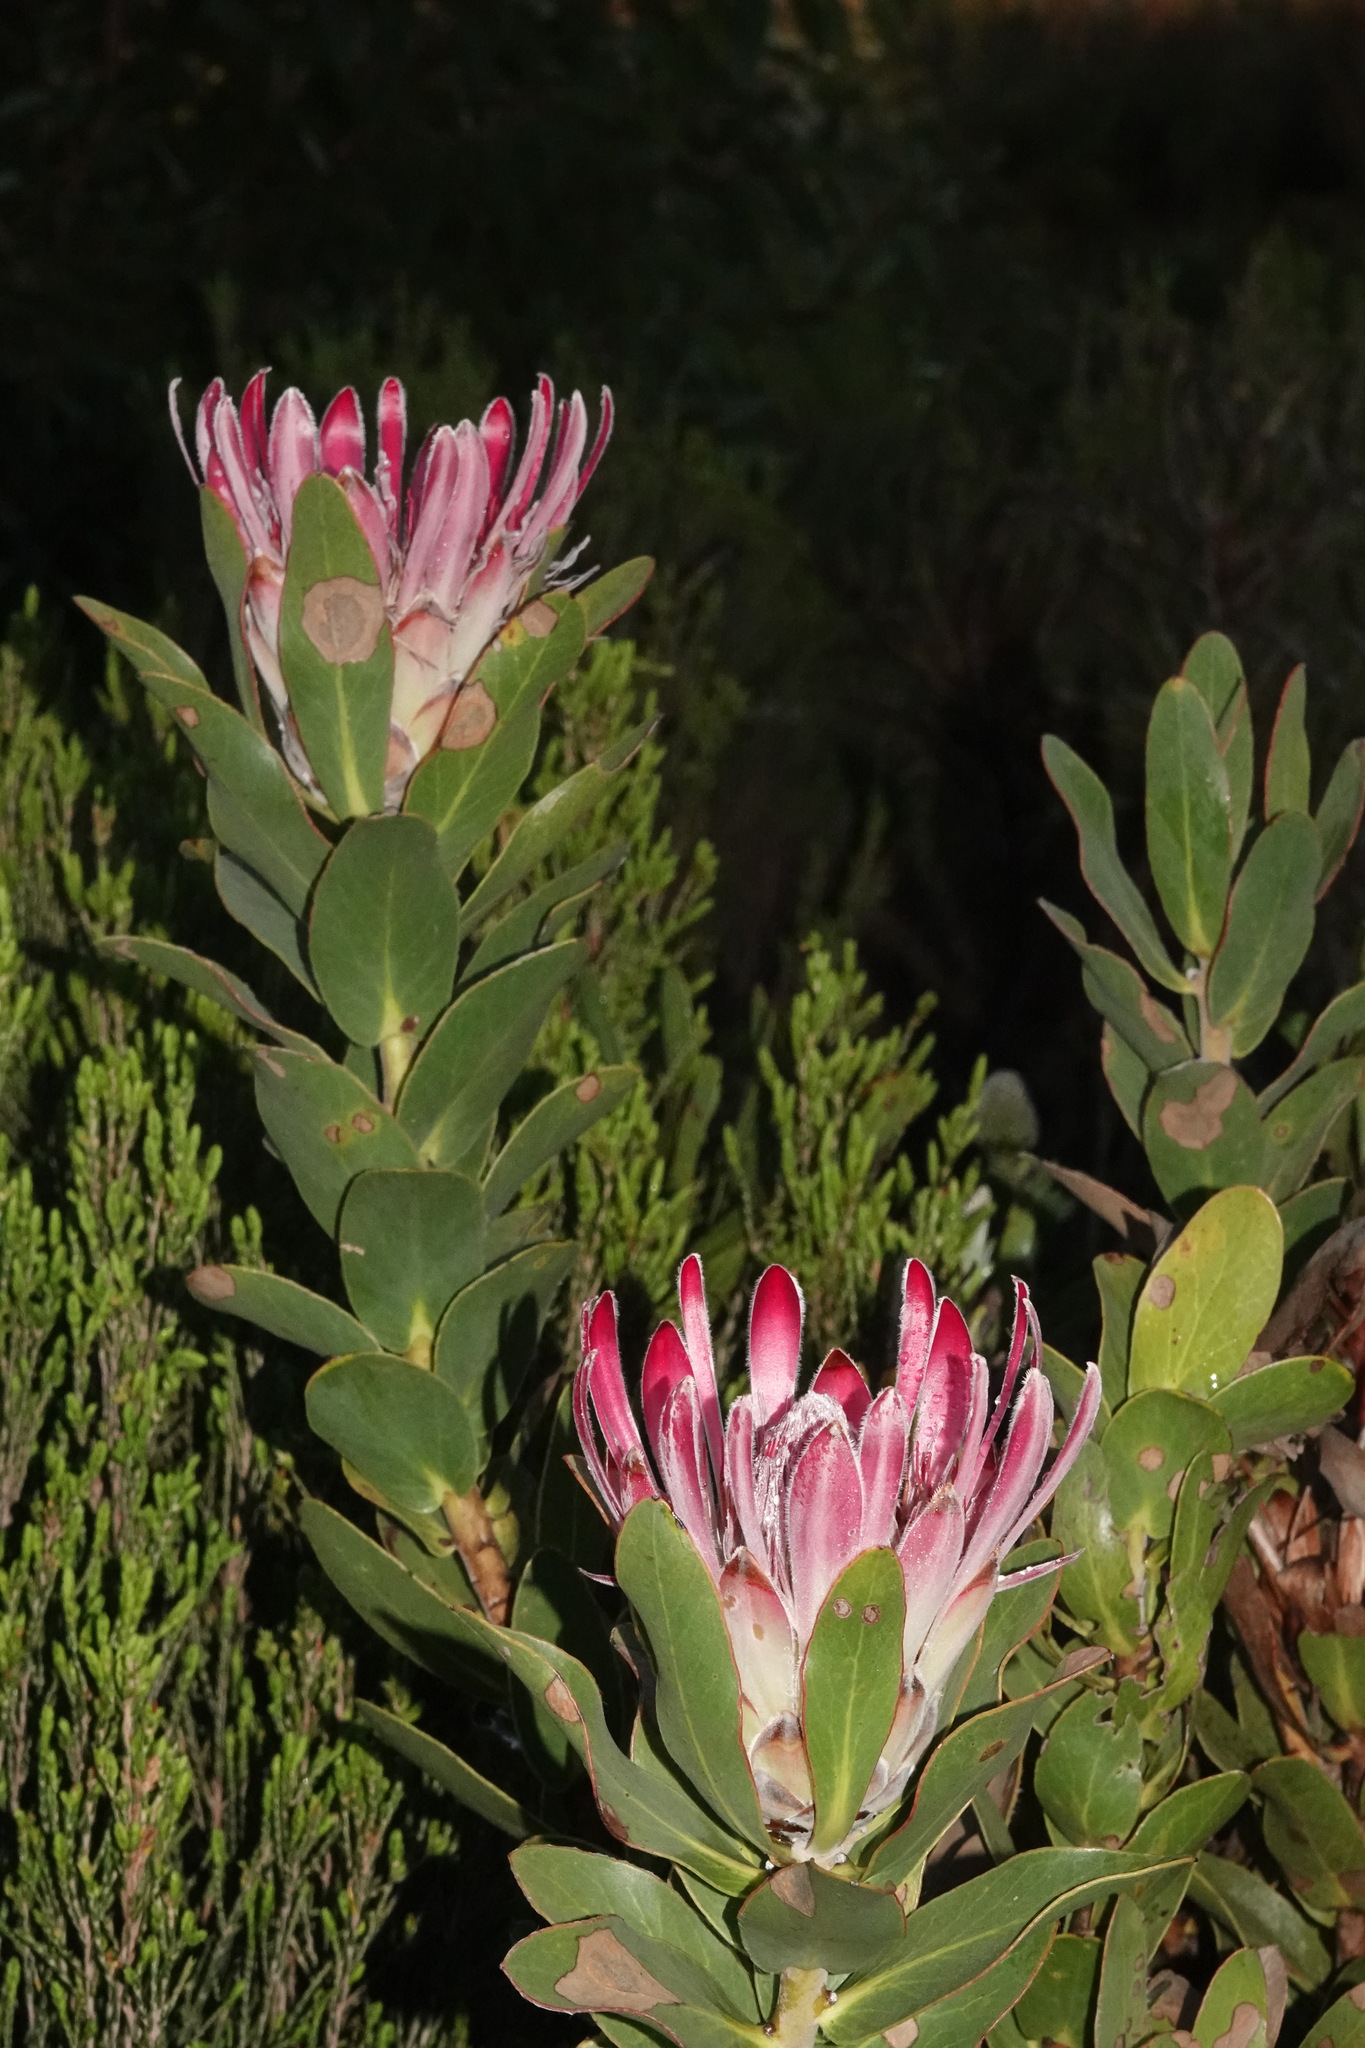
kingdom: Plantae
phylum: Tracheophyta
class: Magnoliopsida
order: Proteales
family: Proteaceae
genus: Protea
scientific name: Protea compacta
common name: Bot river protea
